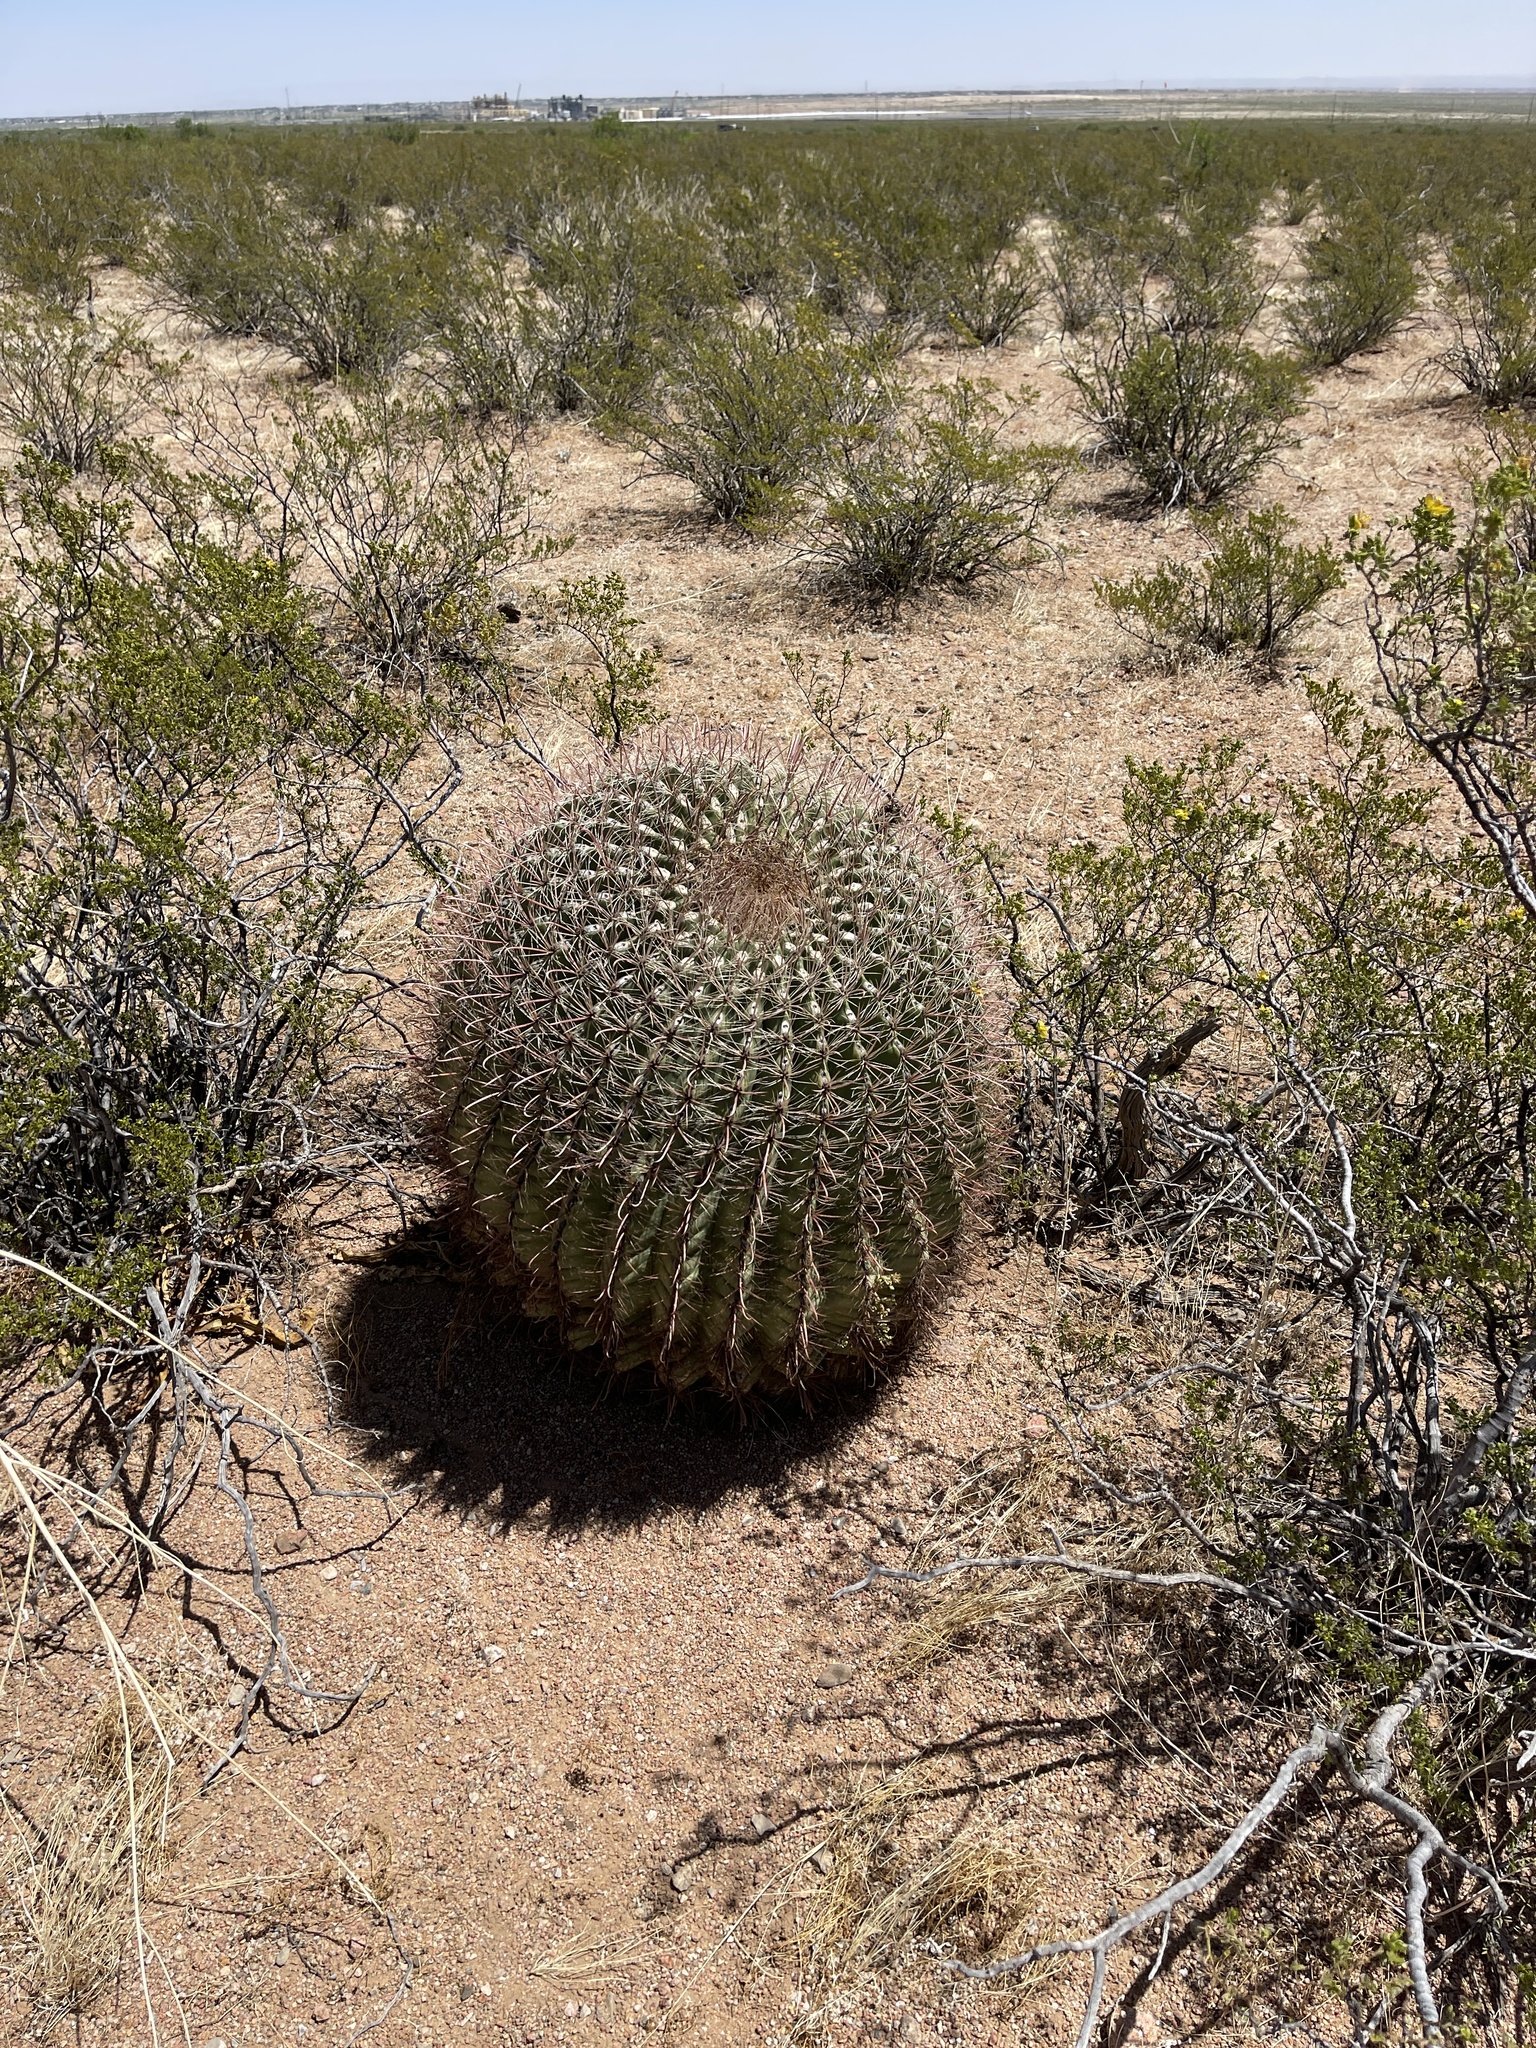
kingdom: Plantae
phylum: Tracheophyta
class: Magnoliopsida
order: Caryophyllales
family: Cactaceae
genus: Ferocactus
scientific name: Ferocactus wislizeni
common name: Candy barrel cactus
